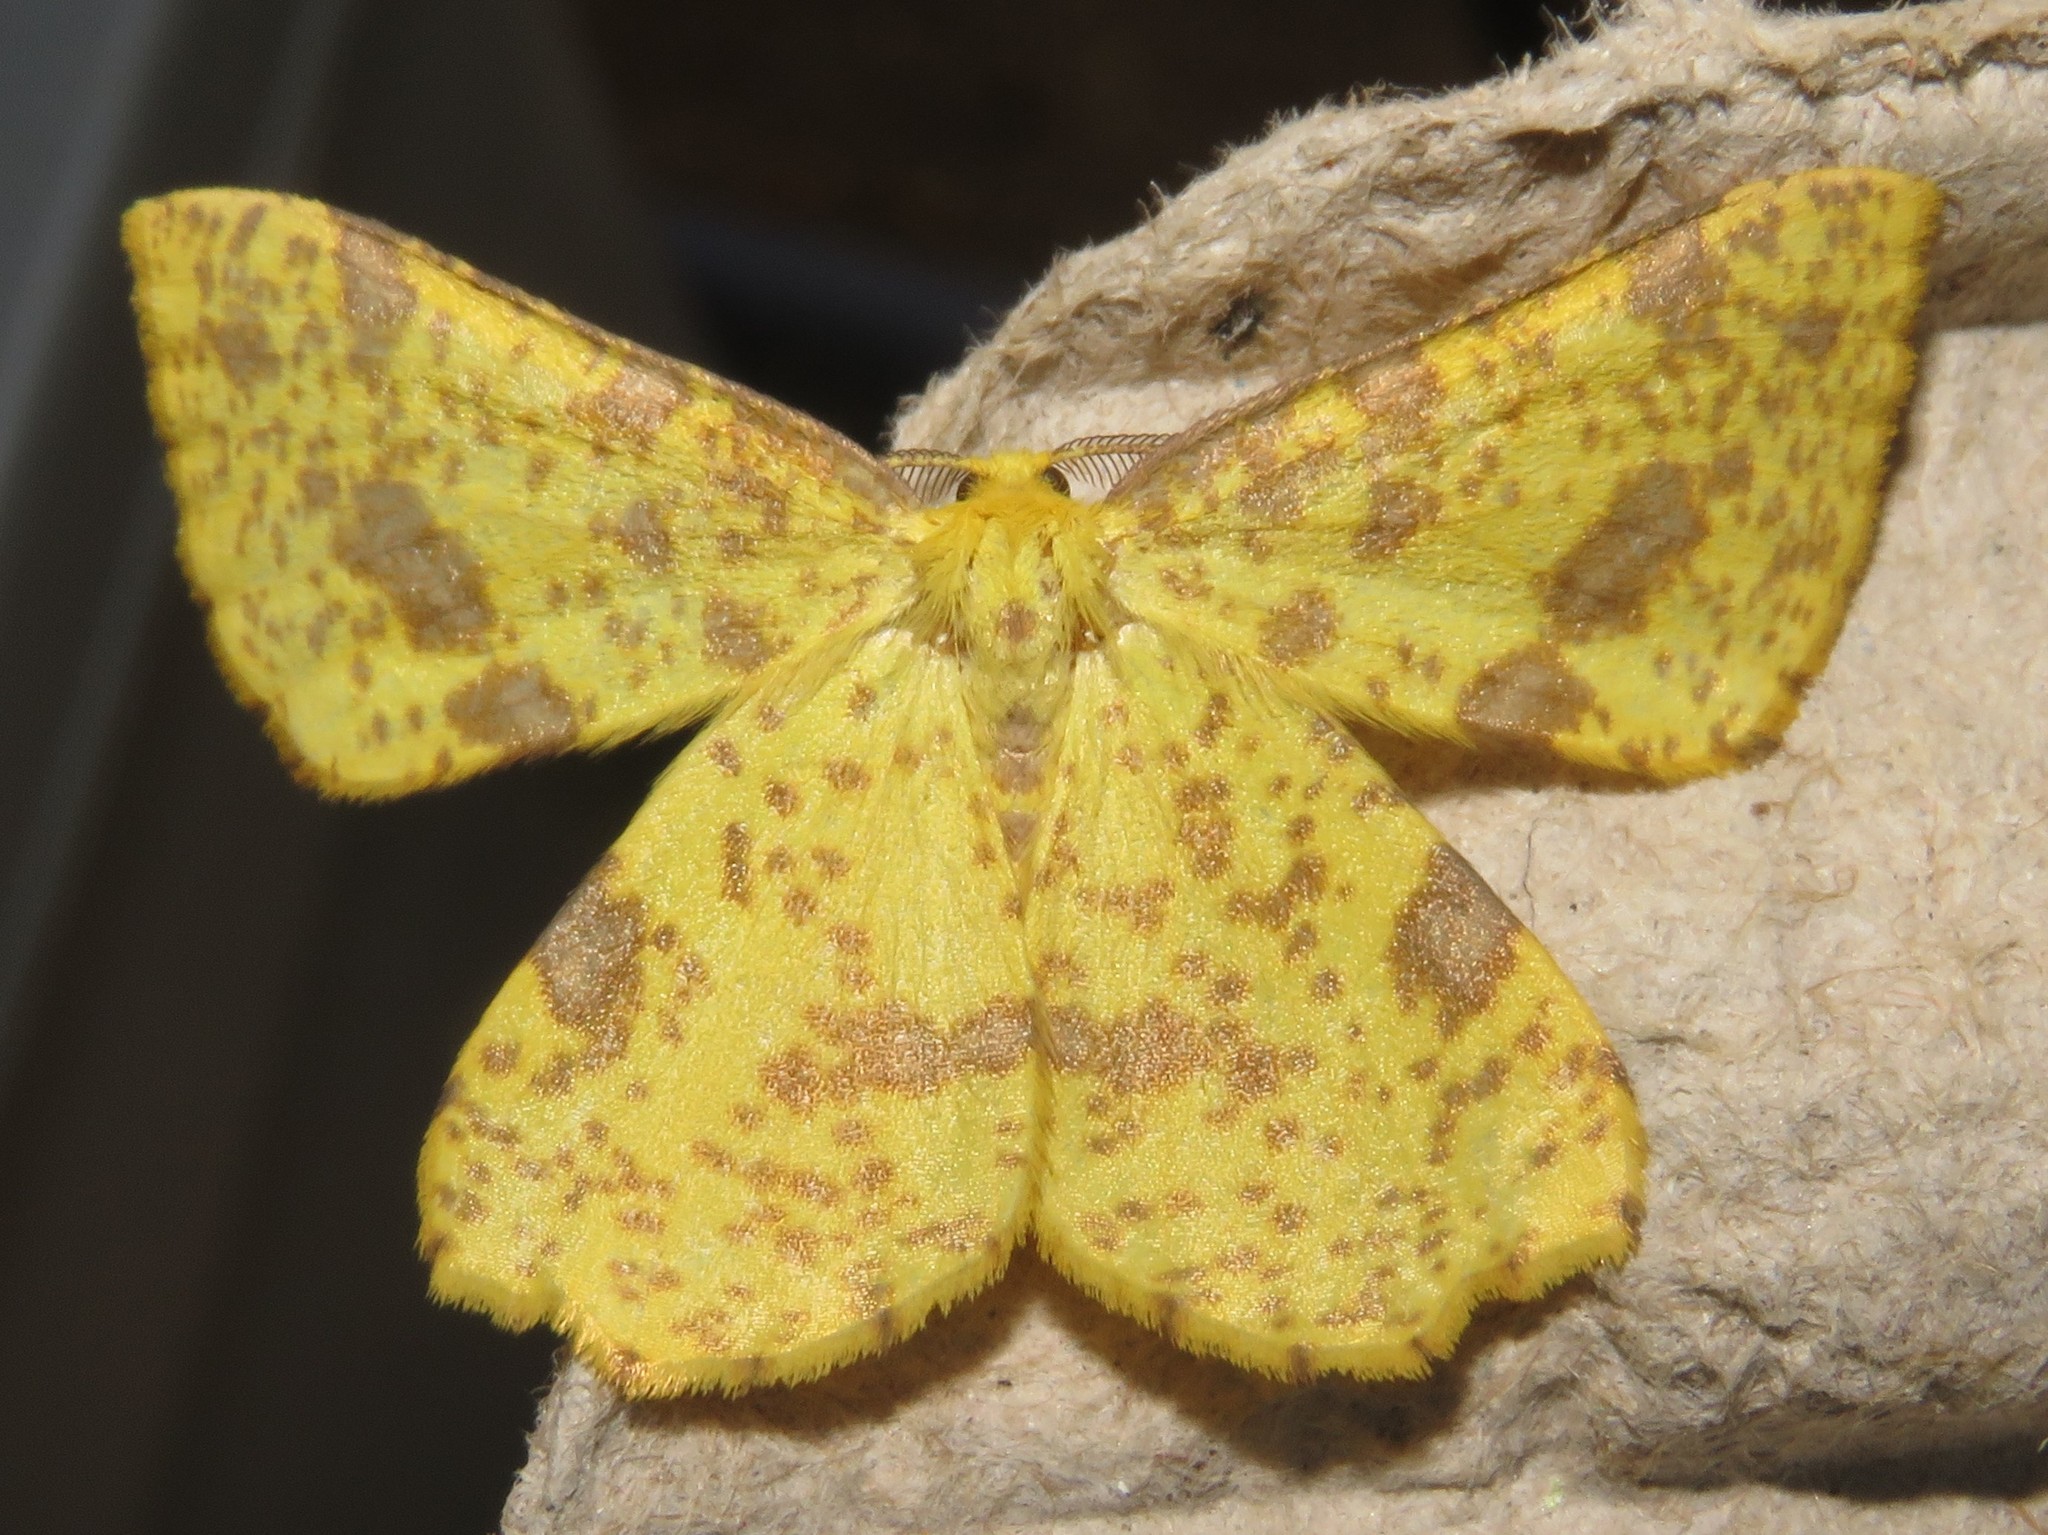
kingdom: Animalia
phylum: Arthropoda
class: Insecta
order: Lepidoptera
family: Geometridae
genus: Xanthotype
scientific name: Xanthotype
